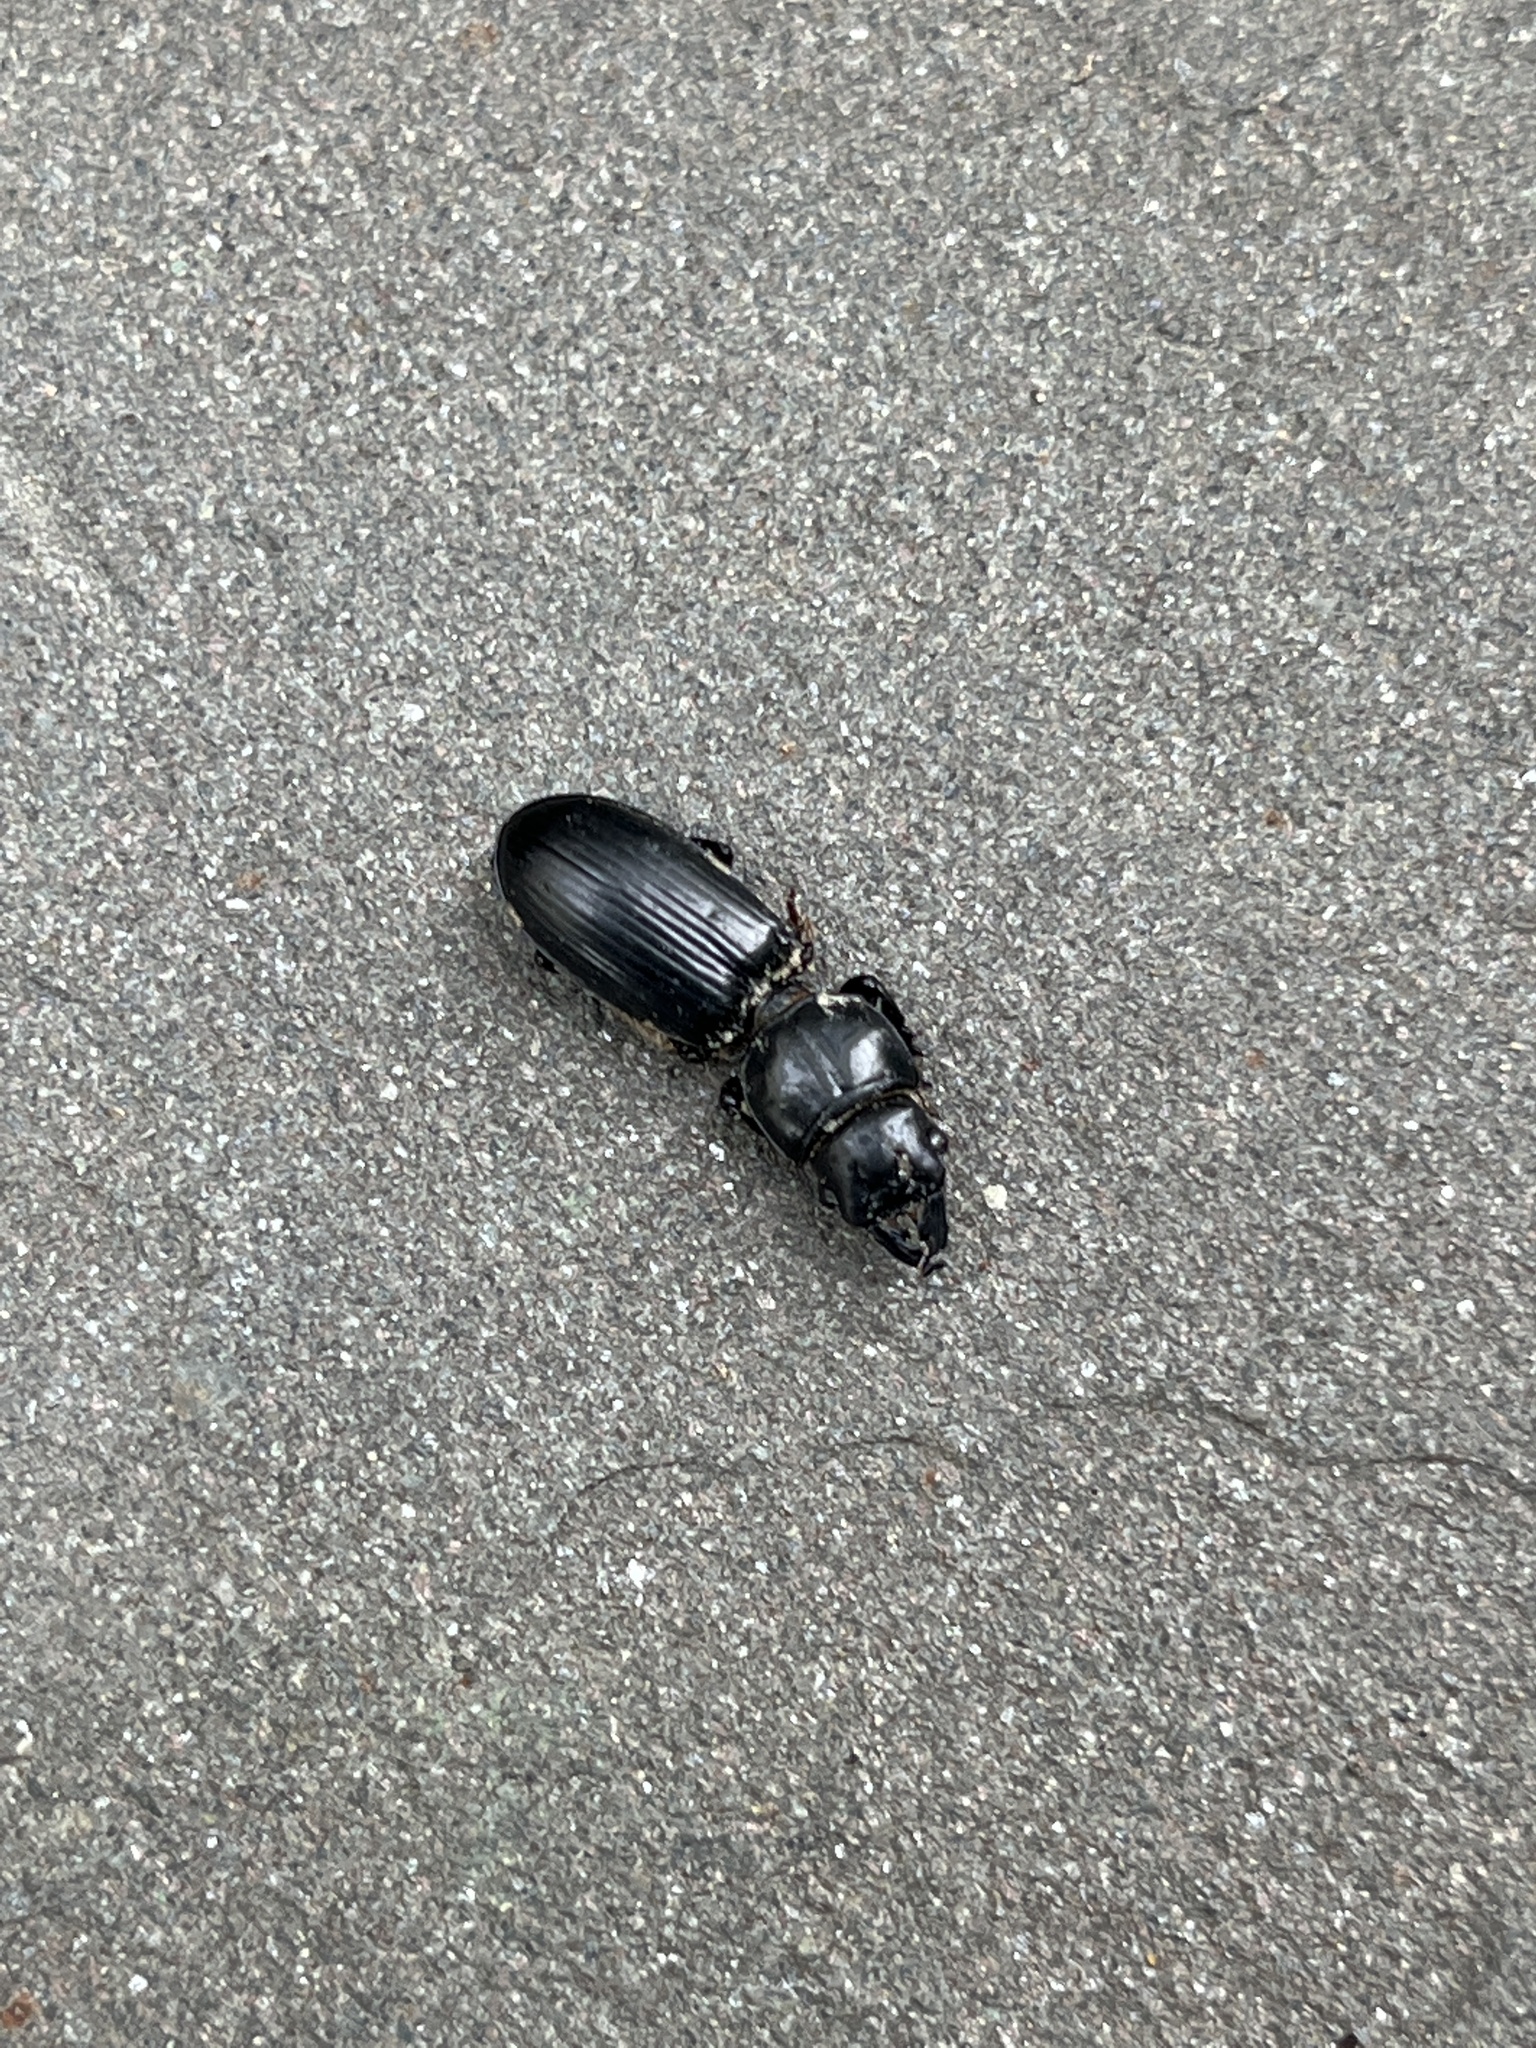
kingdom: Animalia
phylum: Arthropoda
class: Insecta
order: Coleoptera
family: Carabidae
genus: Scarites
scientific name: Scarites subterraneus
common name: Big-headed ground beetle
